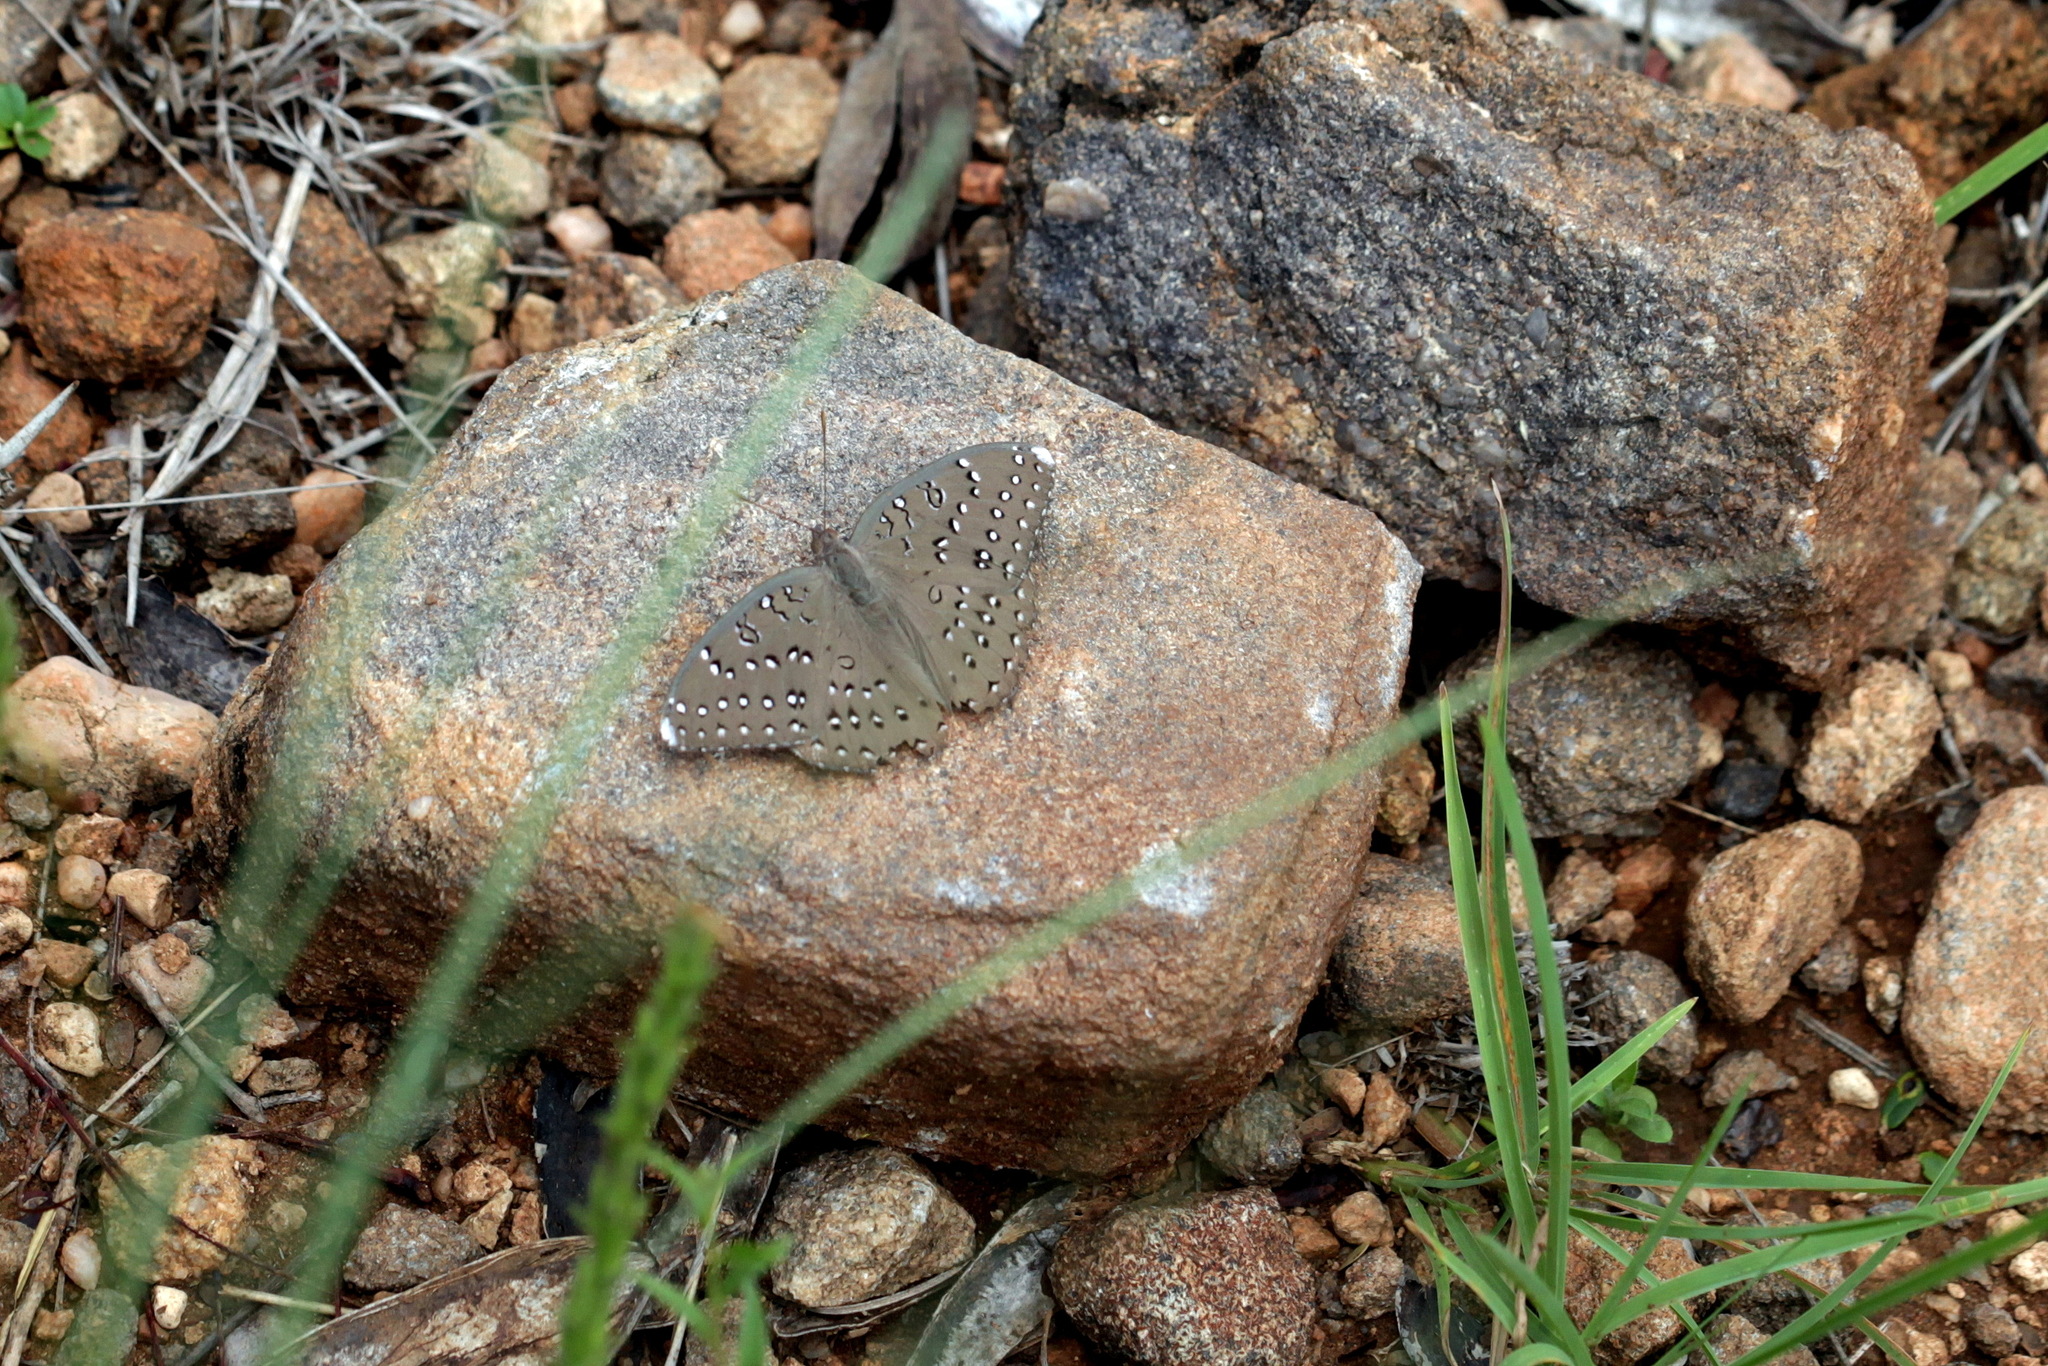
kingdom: Animalia
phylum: Arthropoda
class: Insecta
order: Lepidoptera
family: Nymphalidae
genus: Hamanumida
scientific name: Hamanumida daedalus
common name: Guinea-fowl butterfly
